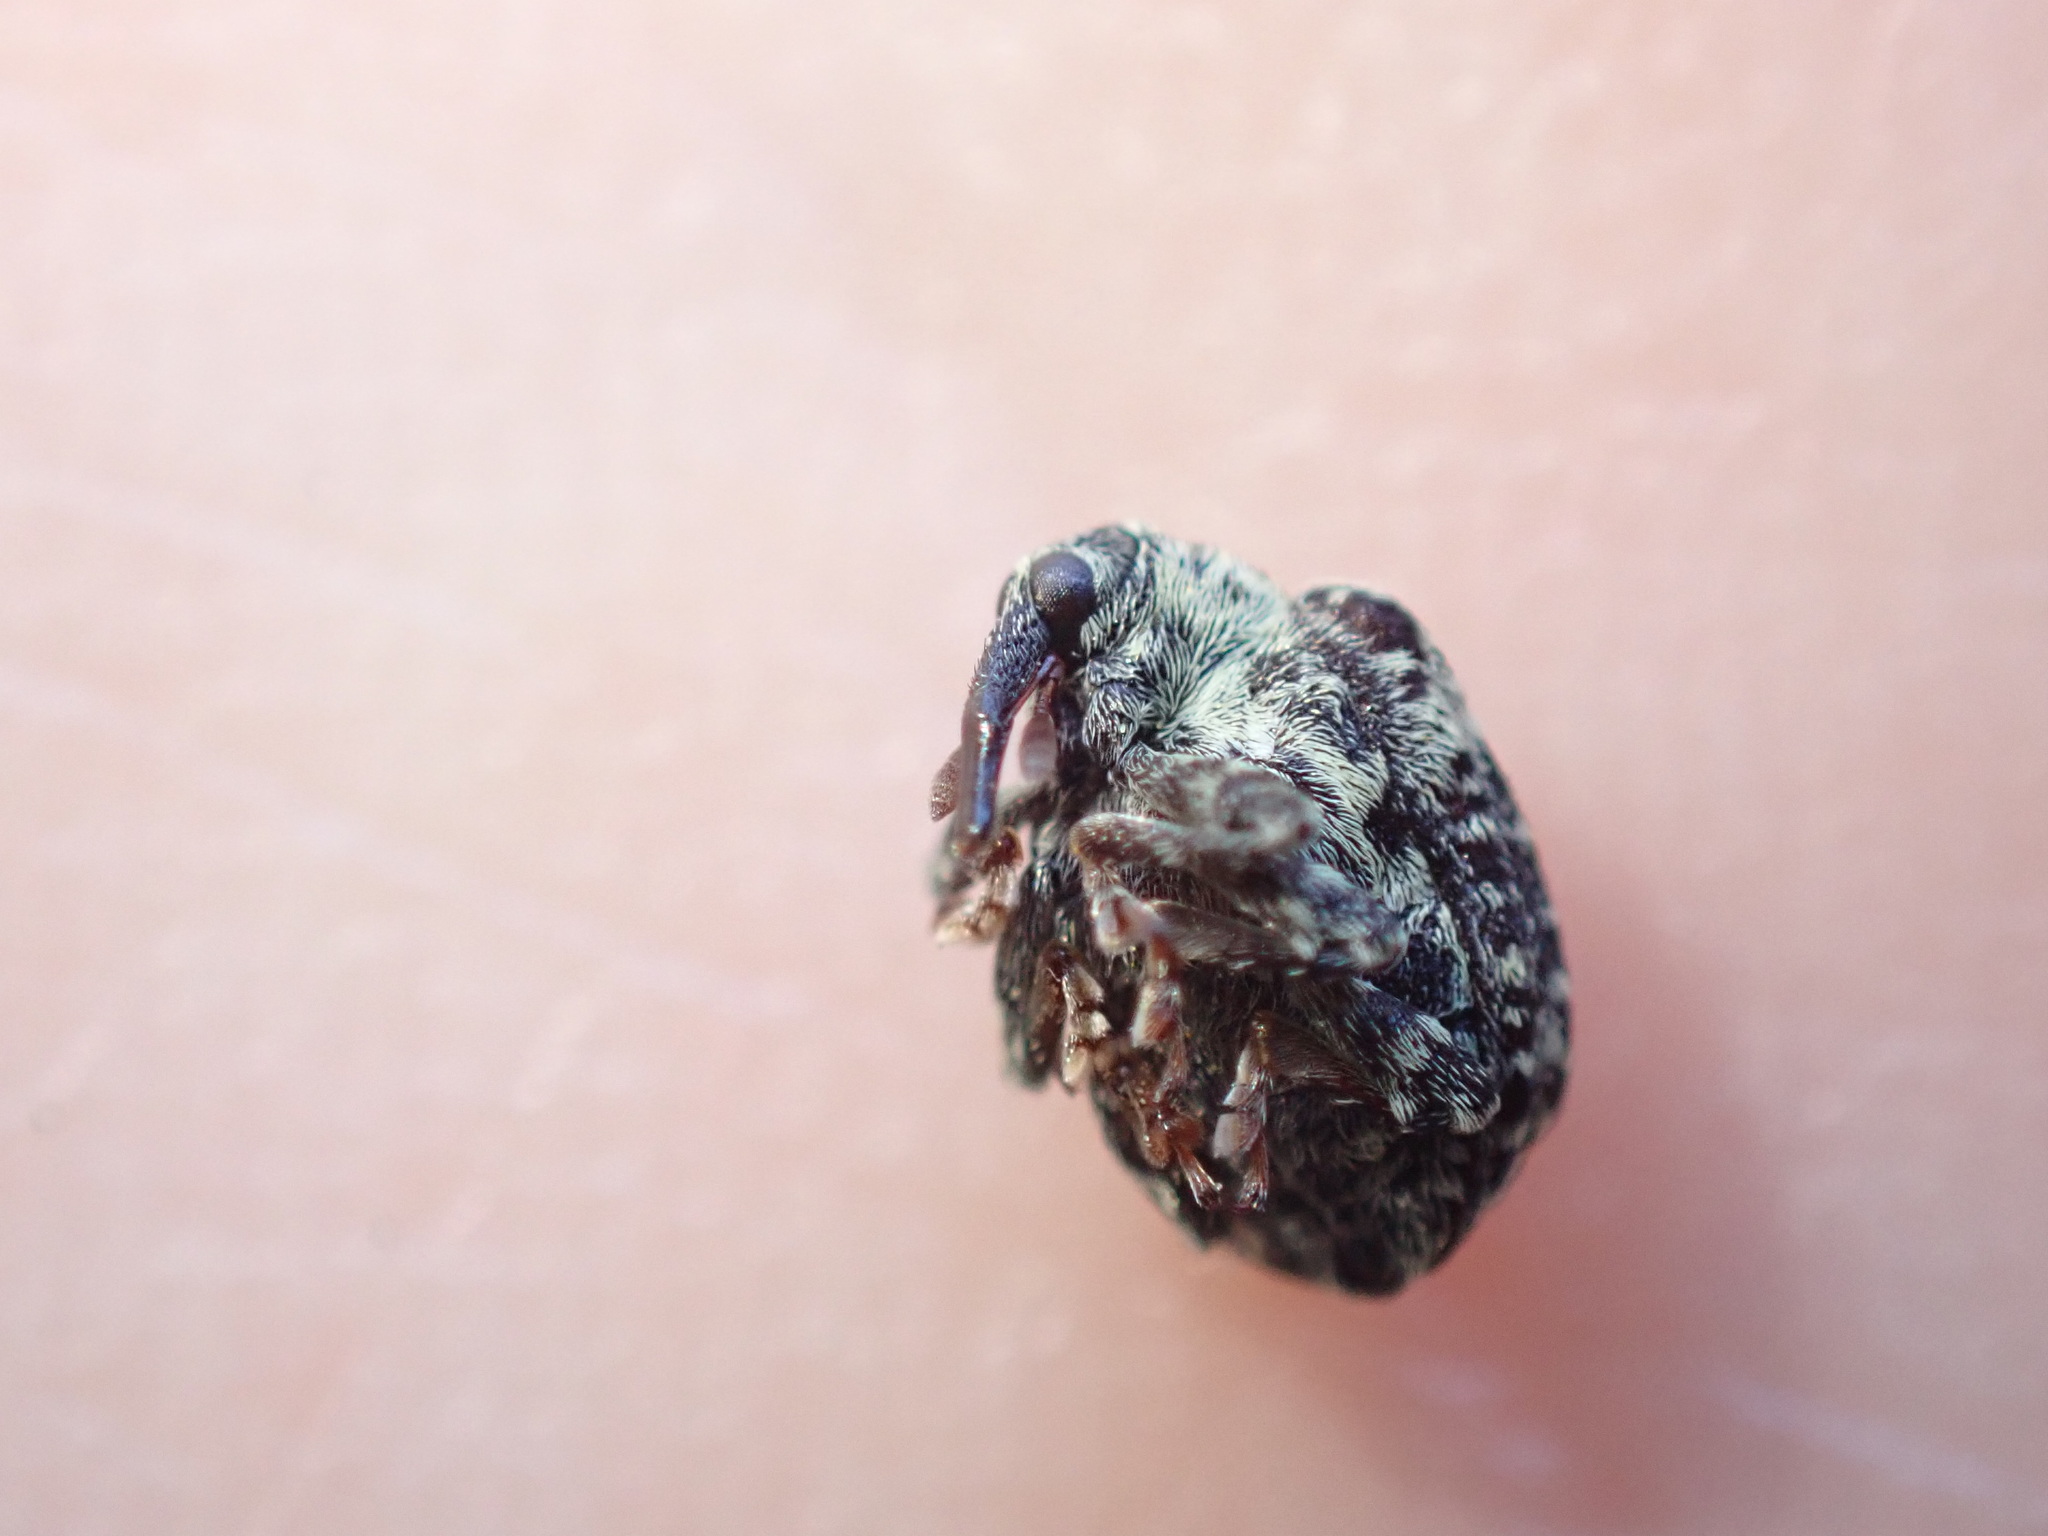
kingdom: Animalia
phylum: Arthropoda
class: Insecta
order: Coleoptera
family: Curculionidae
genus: Cionus
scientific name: Cionus hortulanus
